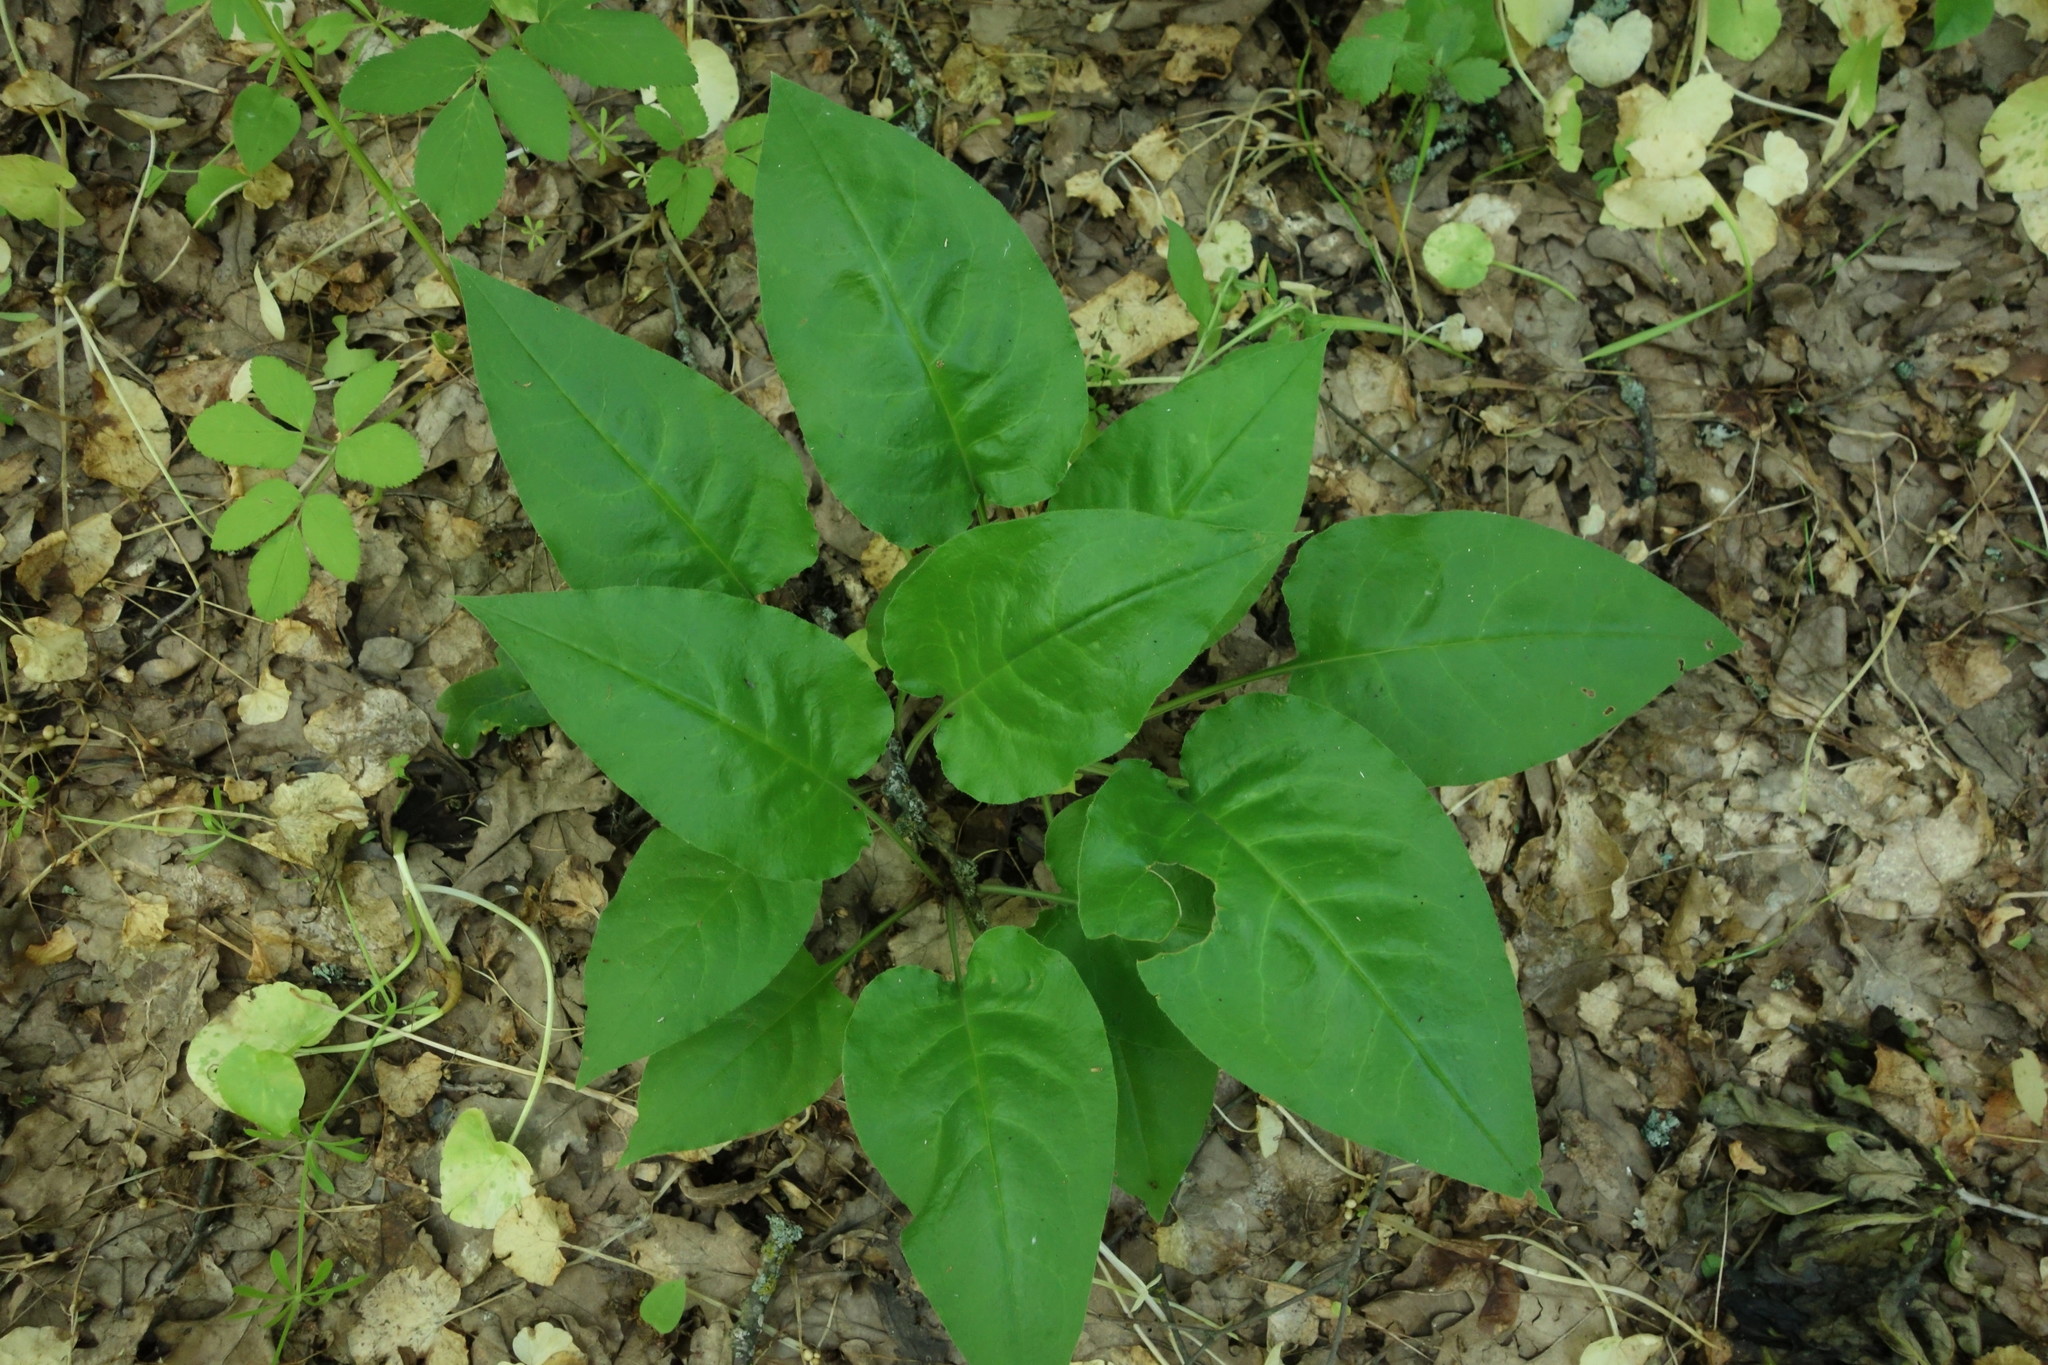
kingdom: Plantae
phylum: Tracheophyta
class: Magnoliopsida
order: Boraginales
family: Boraginaceae
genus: Pulmonaria
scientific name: Pulmonaria obscura
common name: Suffolk lungwort
